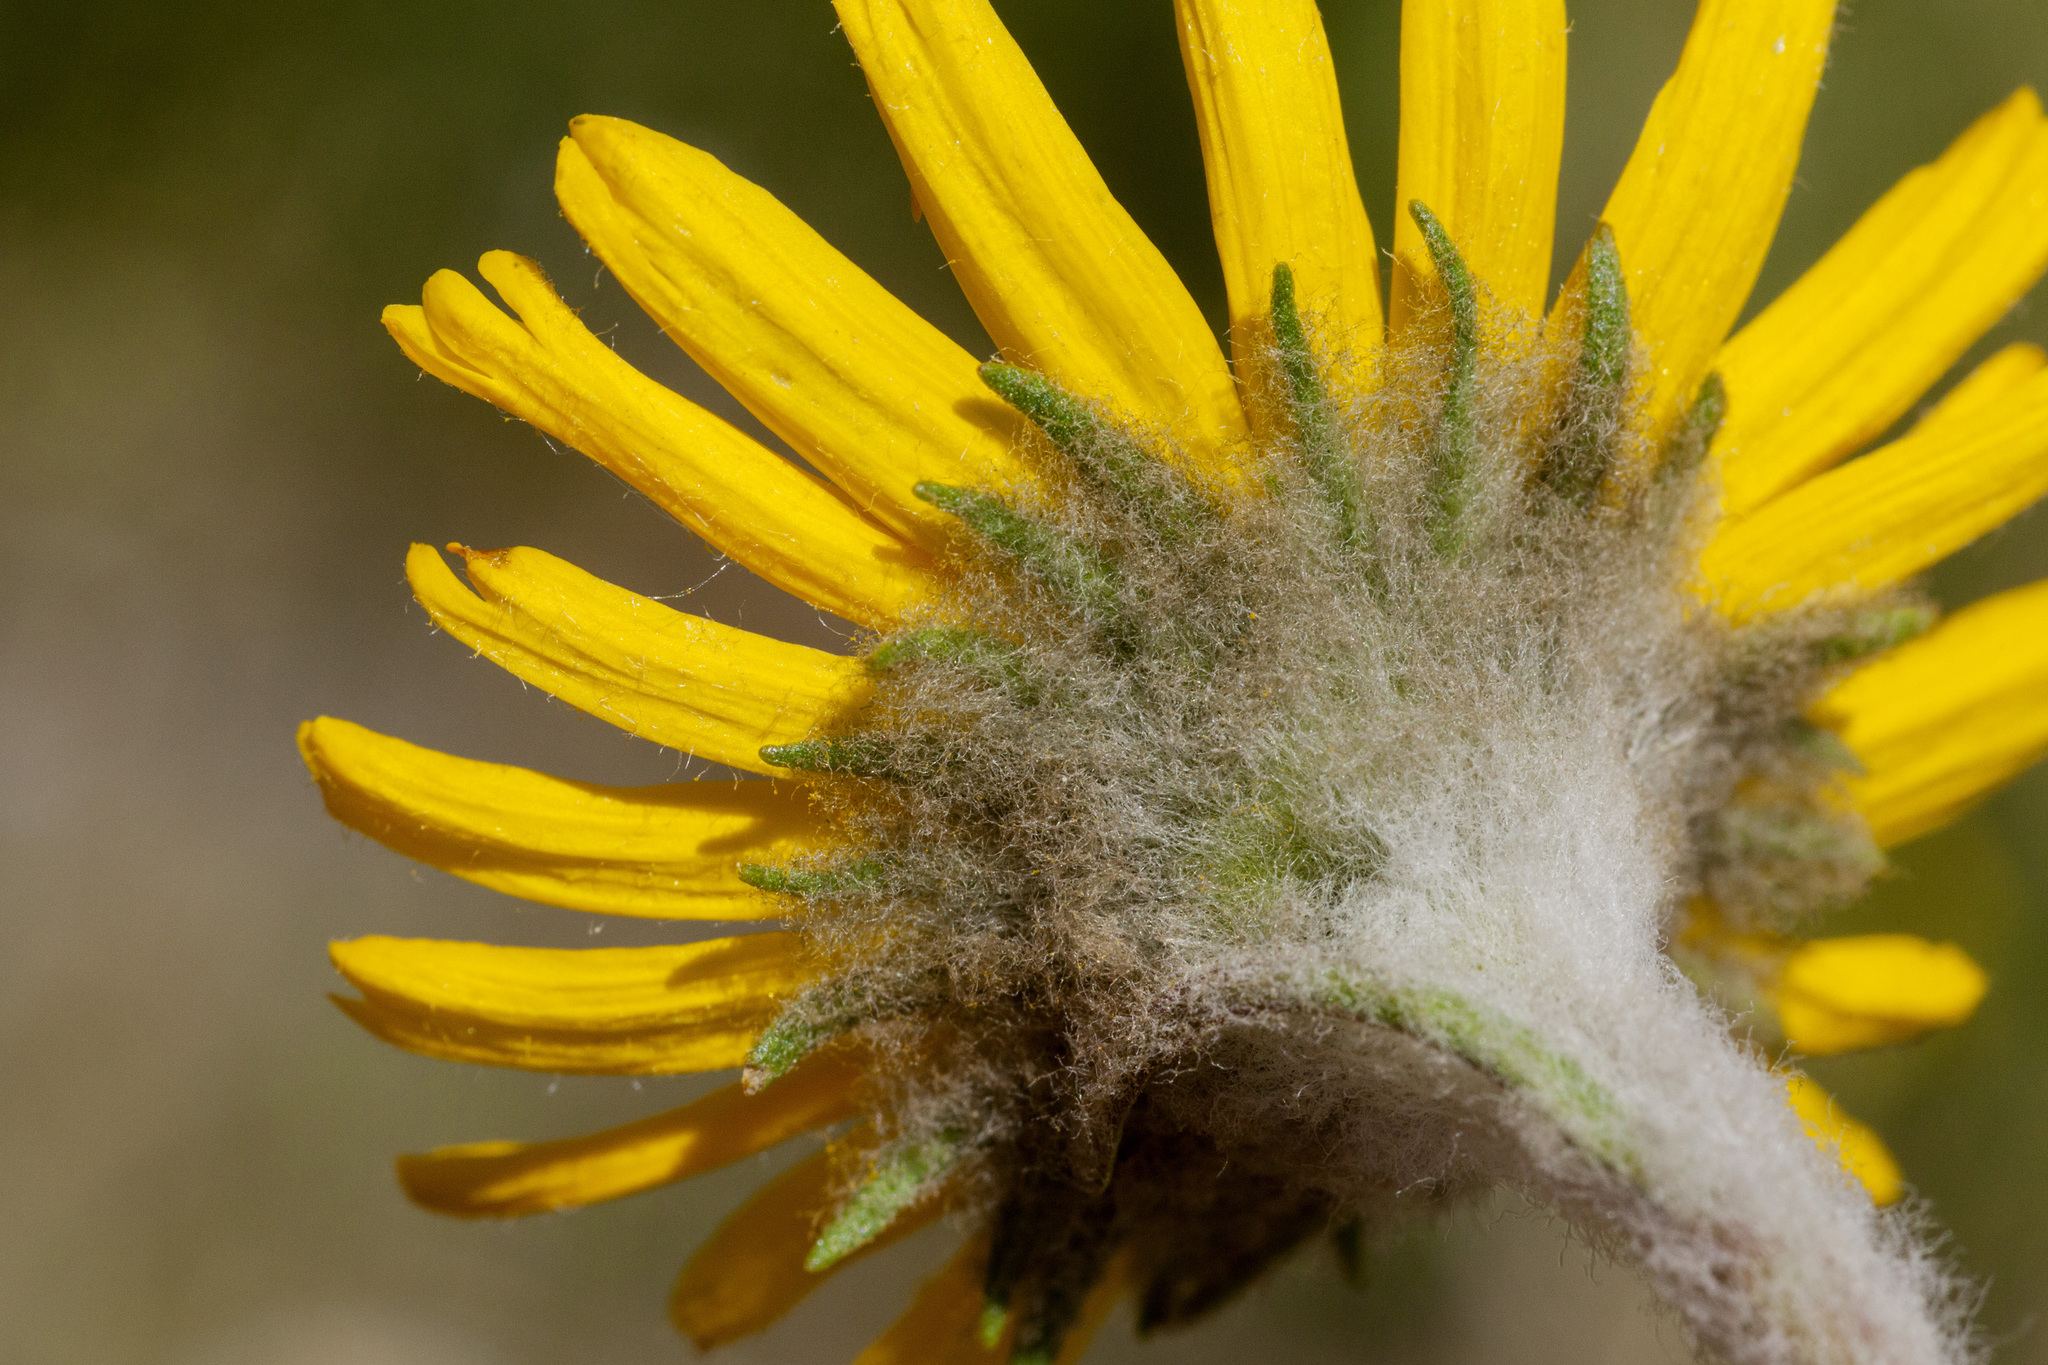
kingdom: Plantae
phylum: Tracheophyta
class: Magnoliopsida
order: Asterales
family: Asteraceae
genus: Hymenoxys
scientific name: Hymenoxys brandegeei
